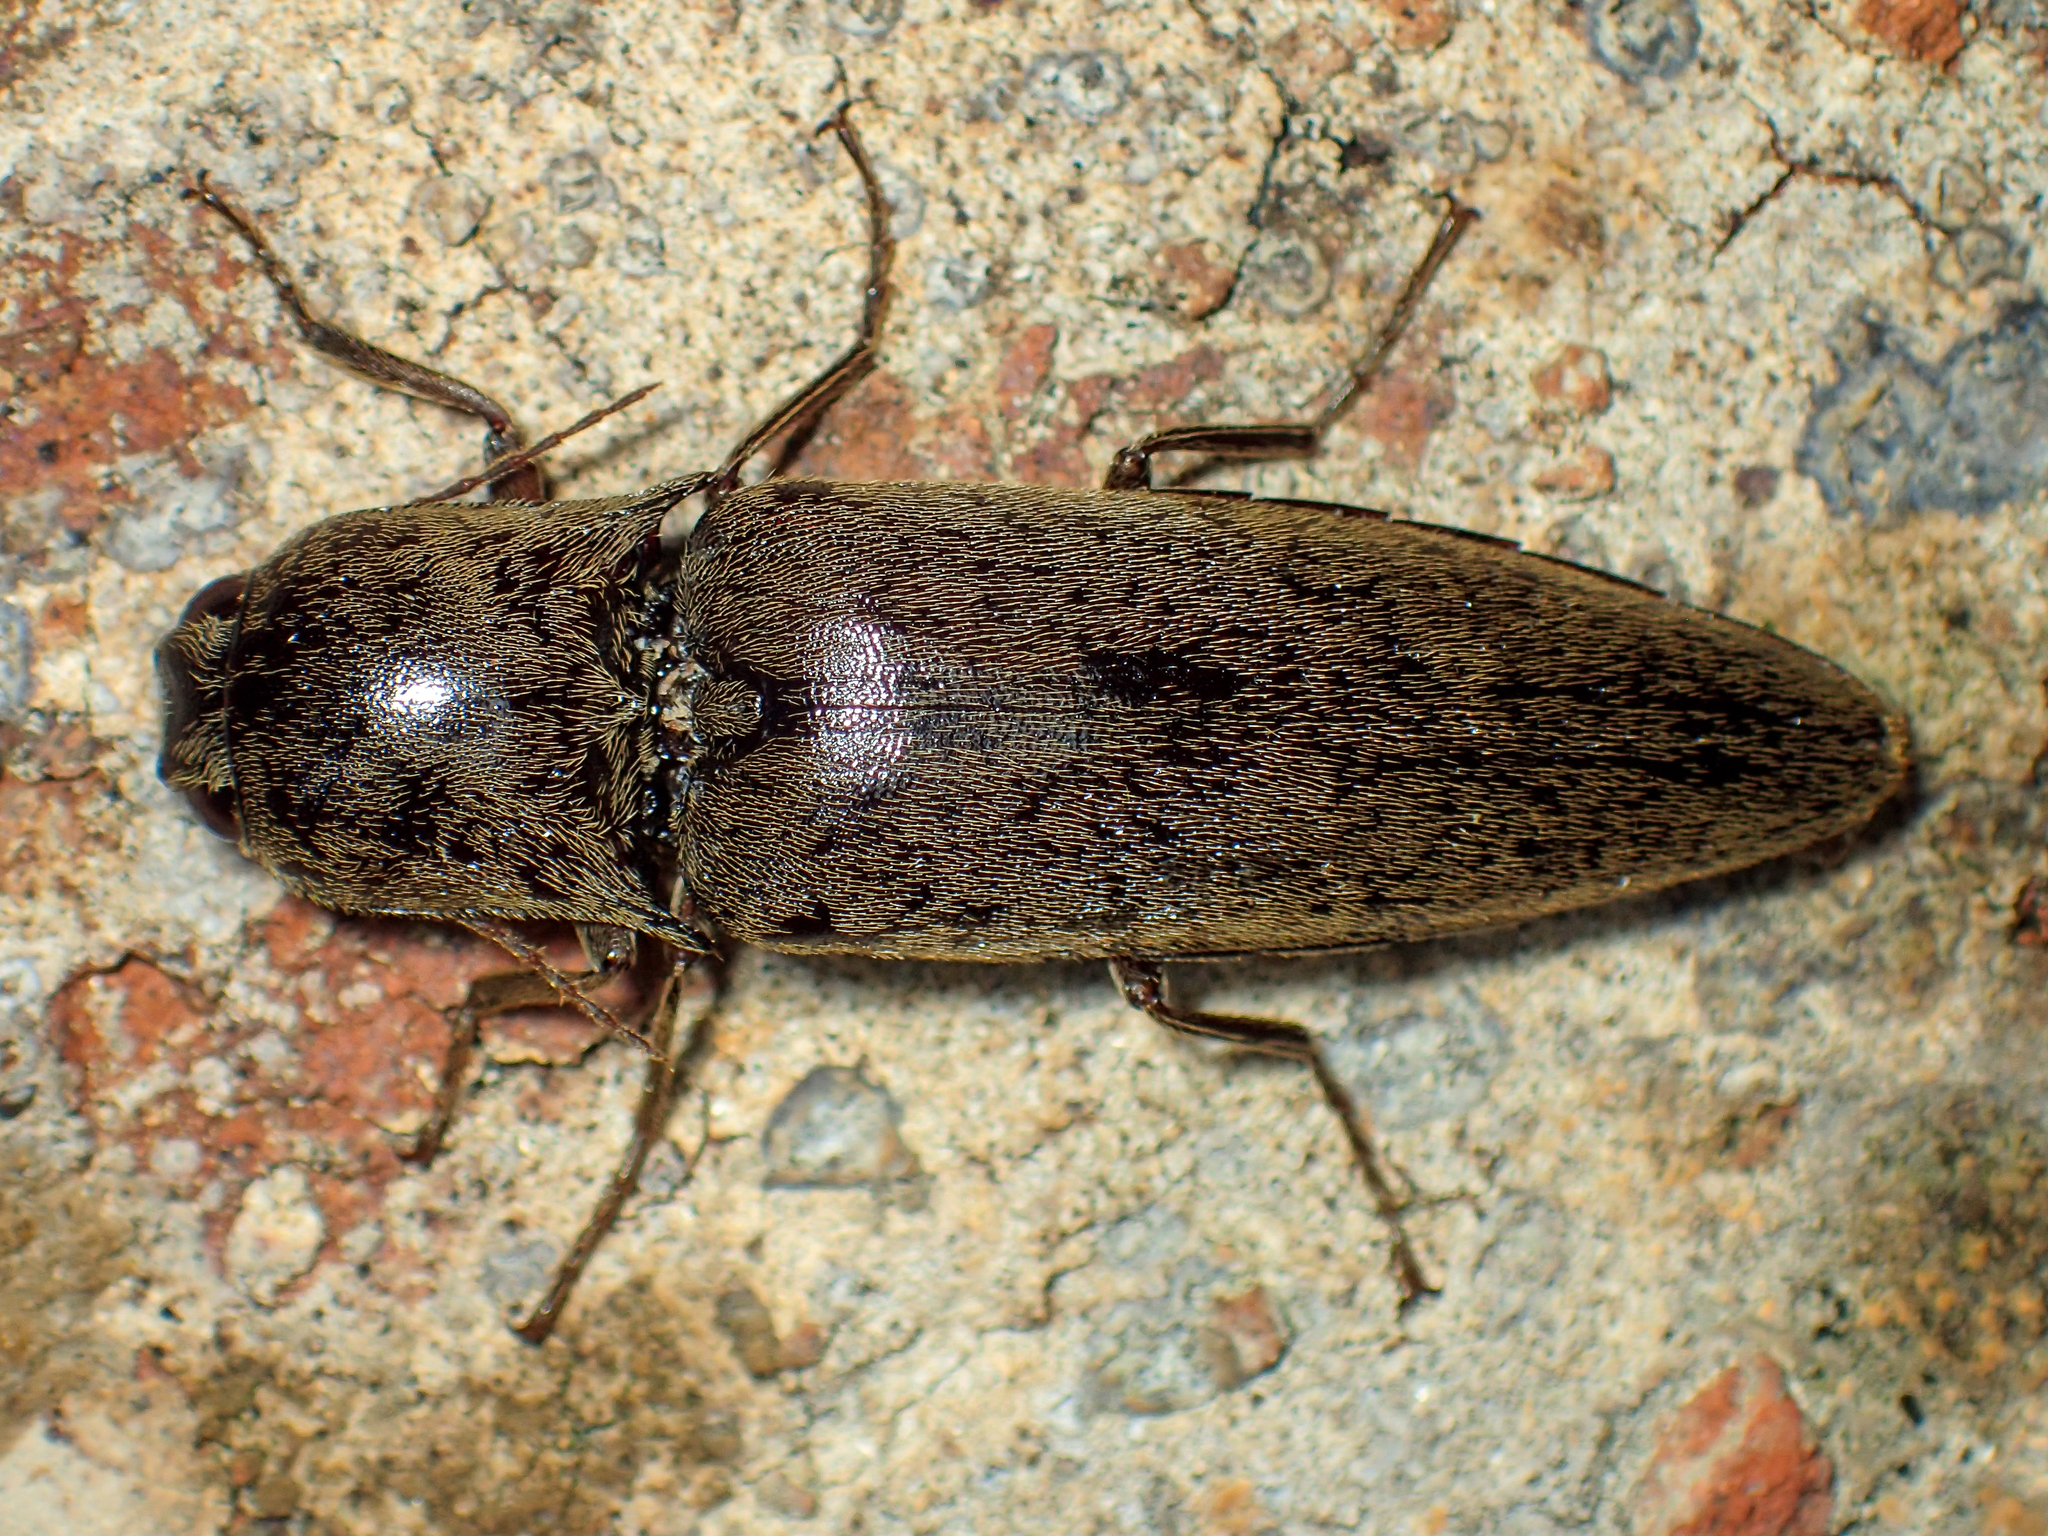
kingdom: Animalia
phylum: Arthropoda
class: Insecta
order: Coleoptera
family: Elateridae
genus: Orthostethus
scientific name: Orthostethus infuscatus
